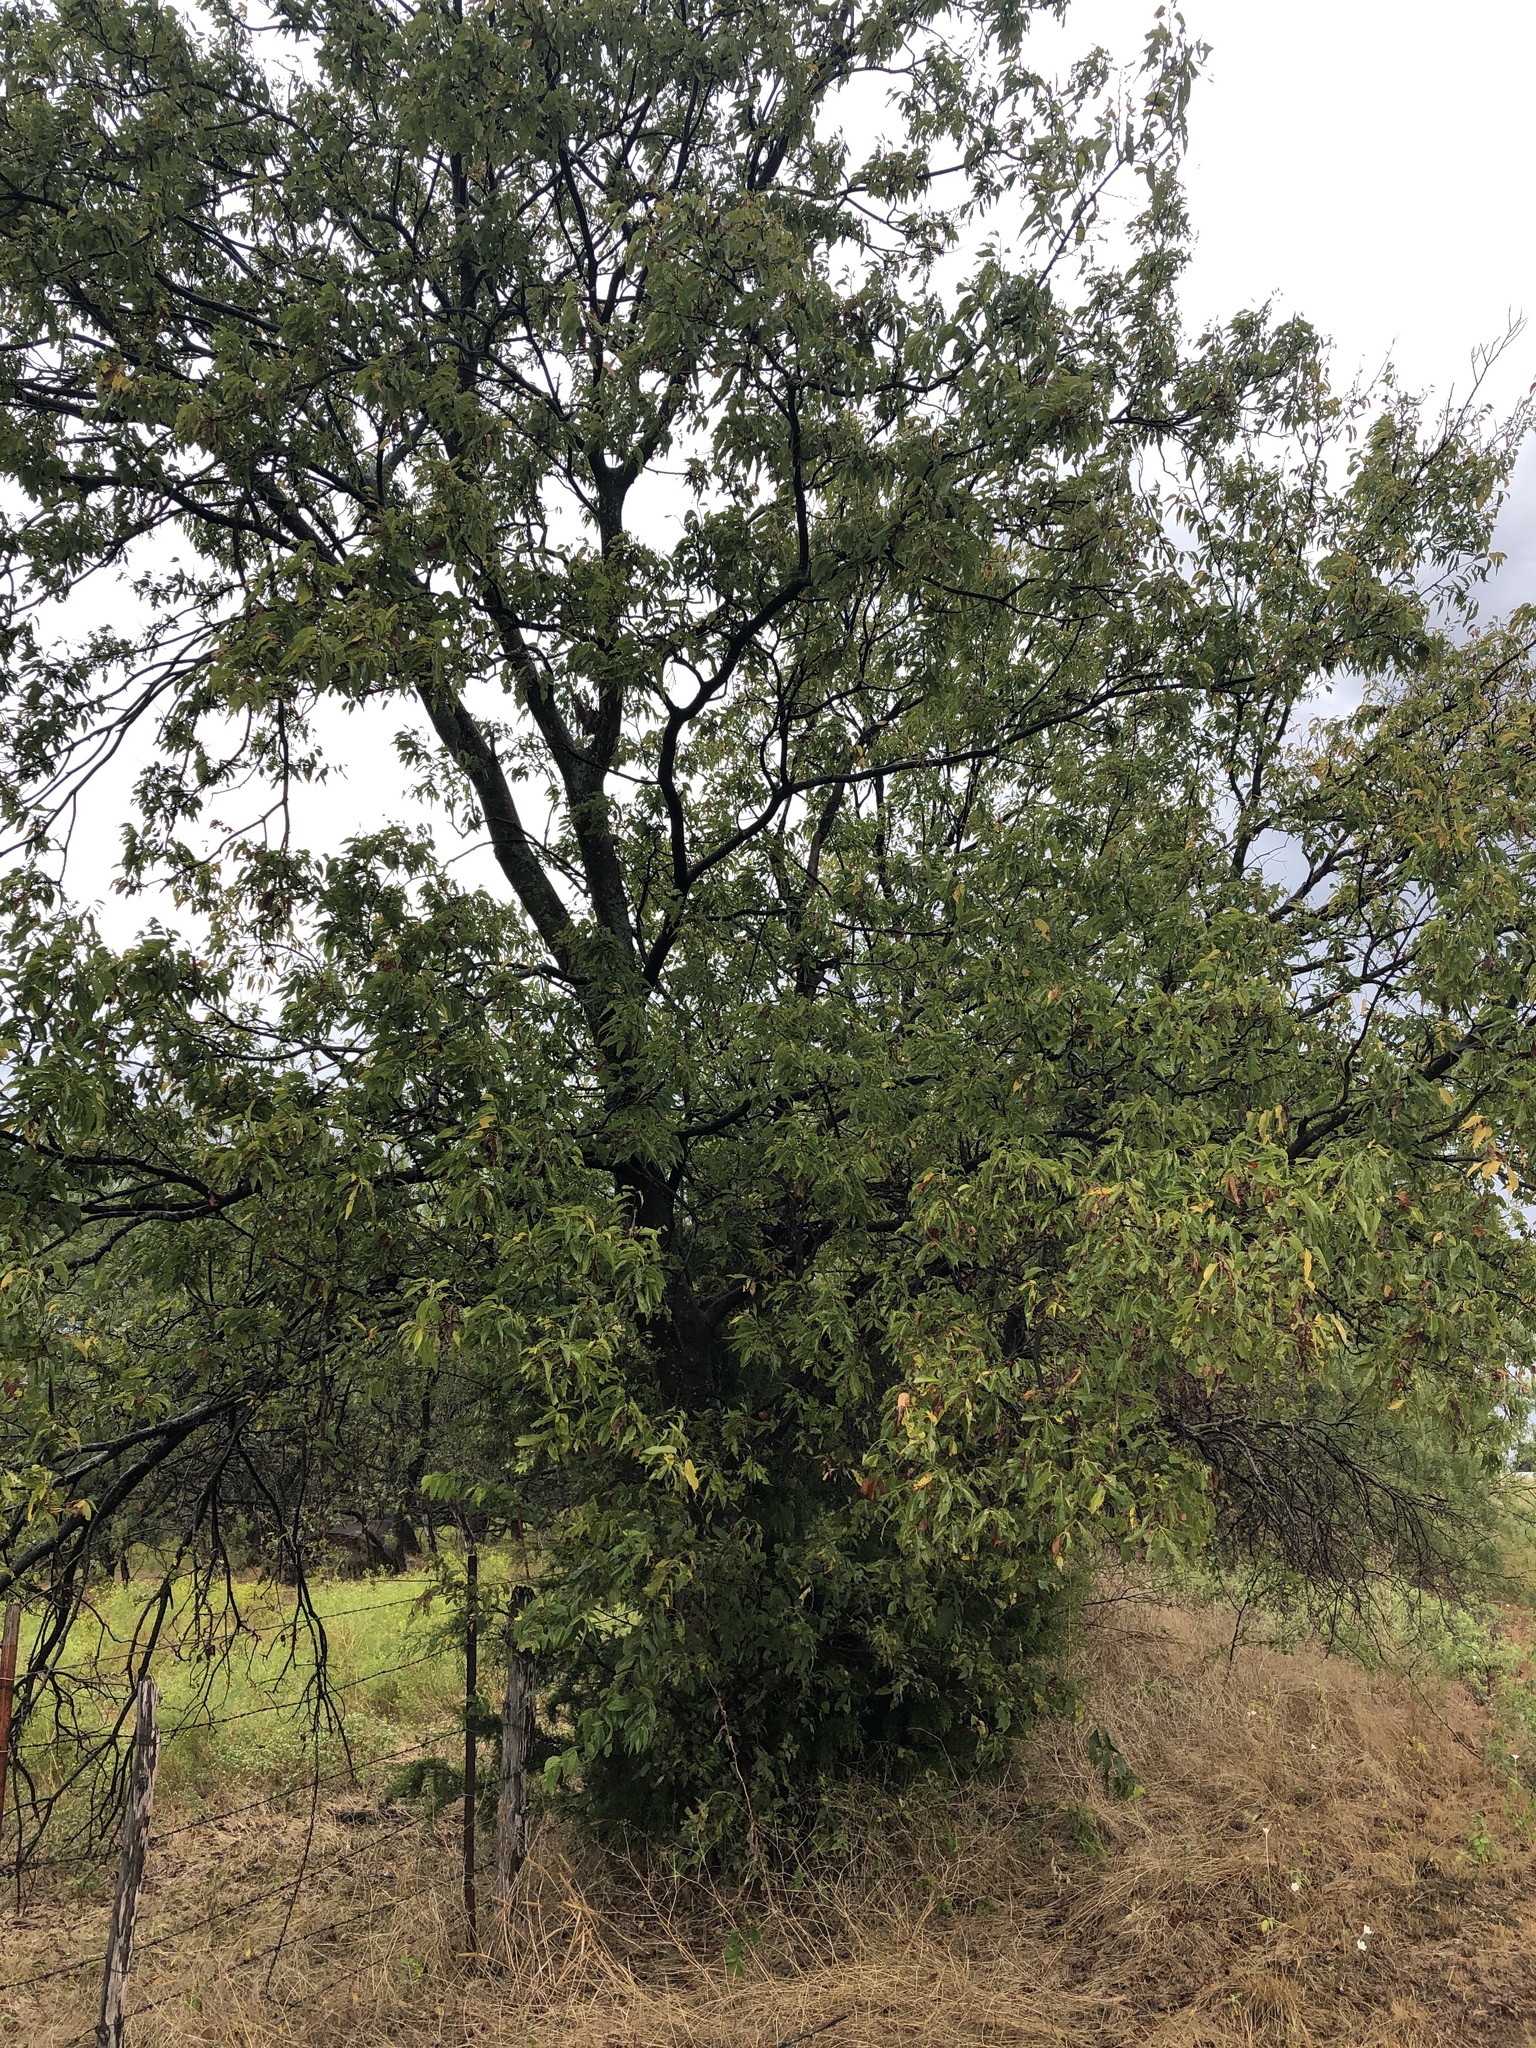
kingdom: Plantae
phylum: Tracheophyta
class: Magnoliopsida
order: Rosales
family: Cannabaceae
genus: Celtis
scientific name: Celtis laevigata
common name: Sugarberry
